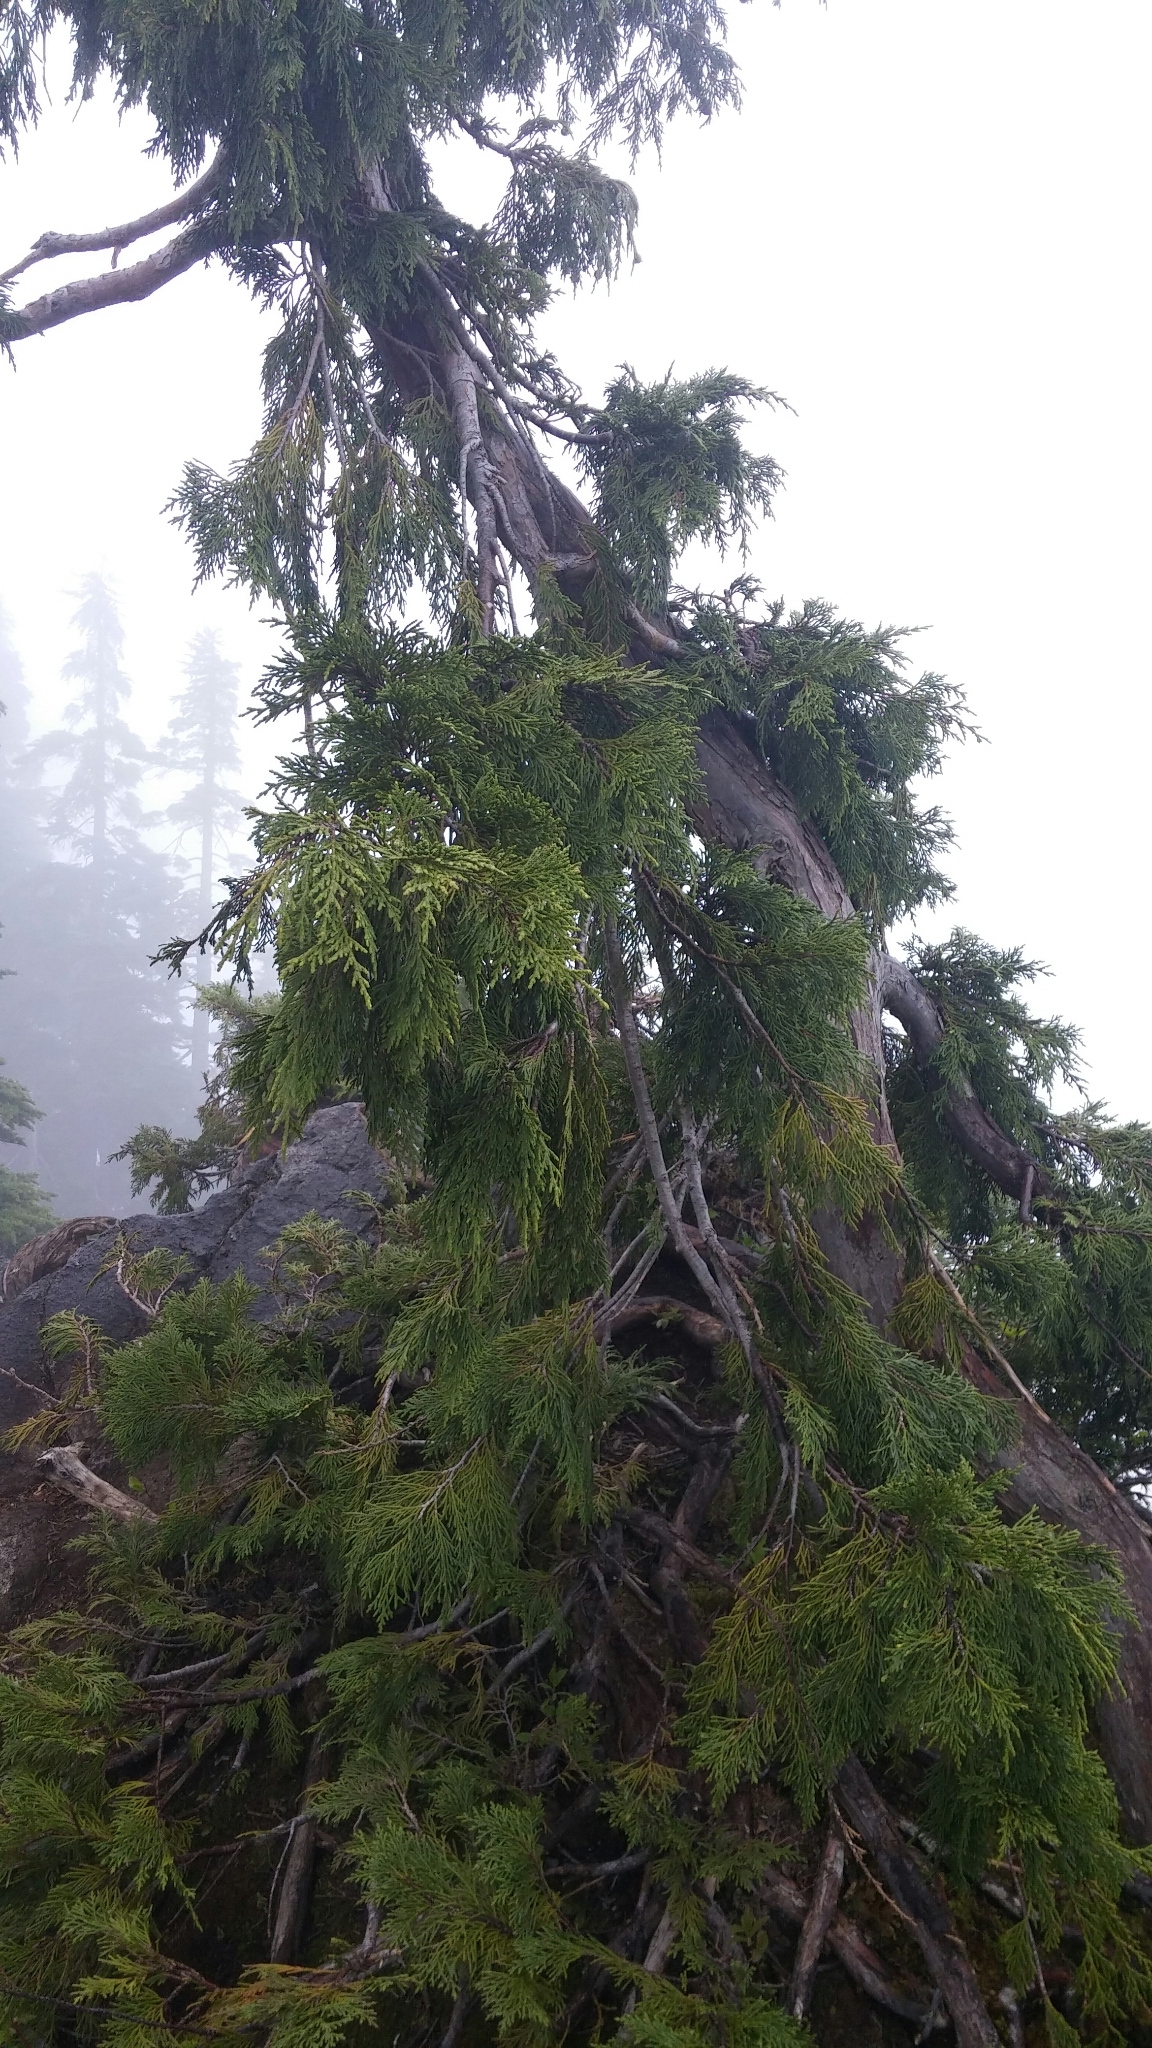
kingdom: Plantae
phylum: Tracheophyta
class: Pinopsida
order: Pinales
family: Cupressaceae
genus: Xanthocyparis
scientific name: Xanthocyparis nootkatensis
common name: Nootka cypress
